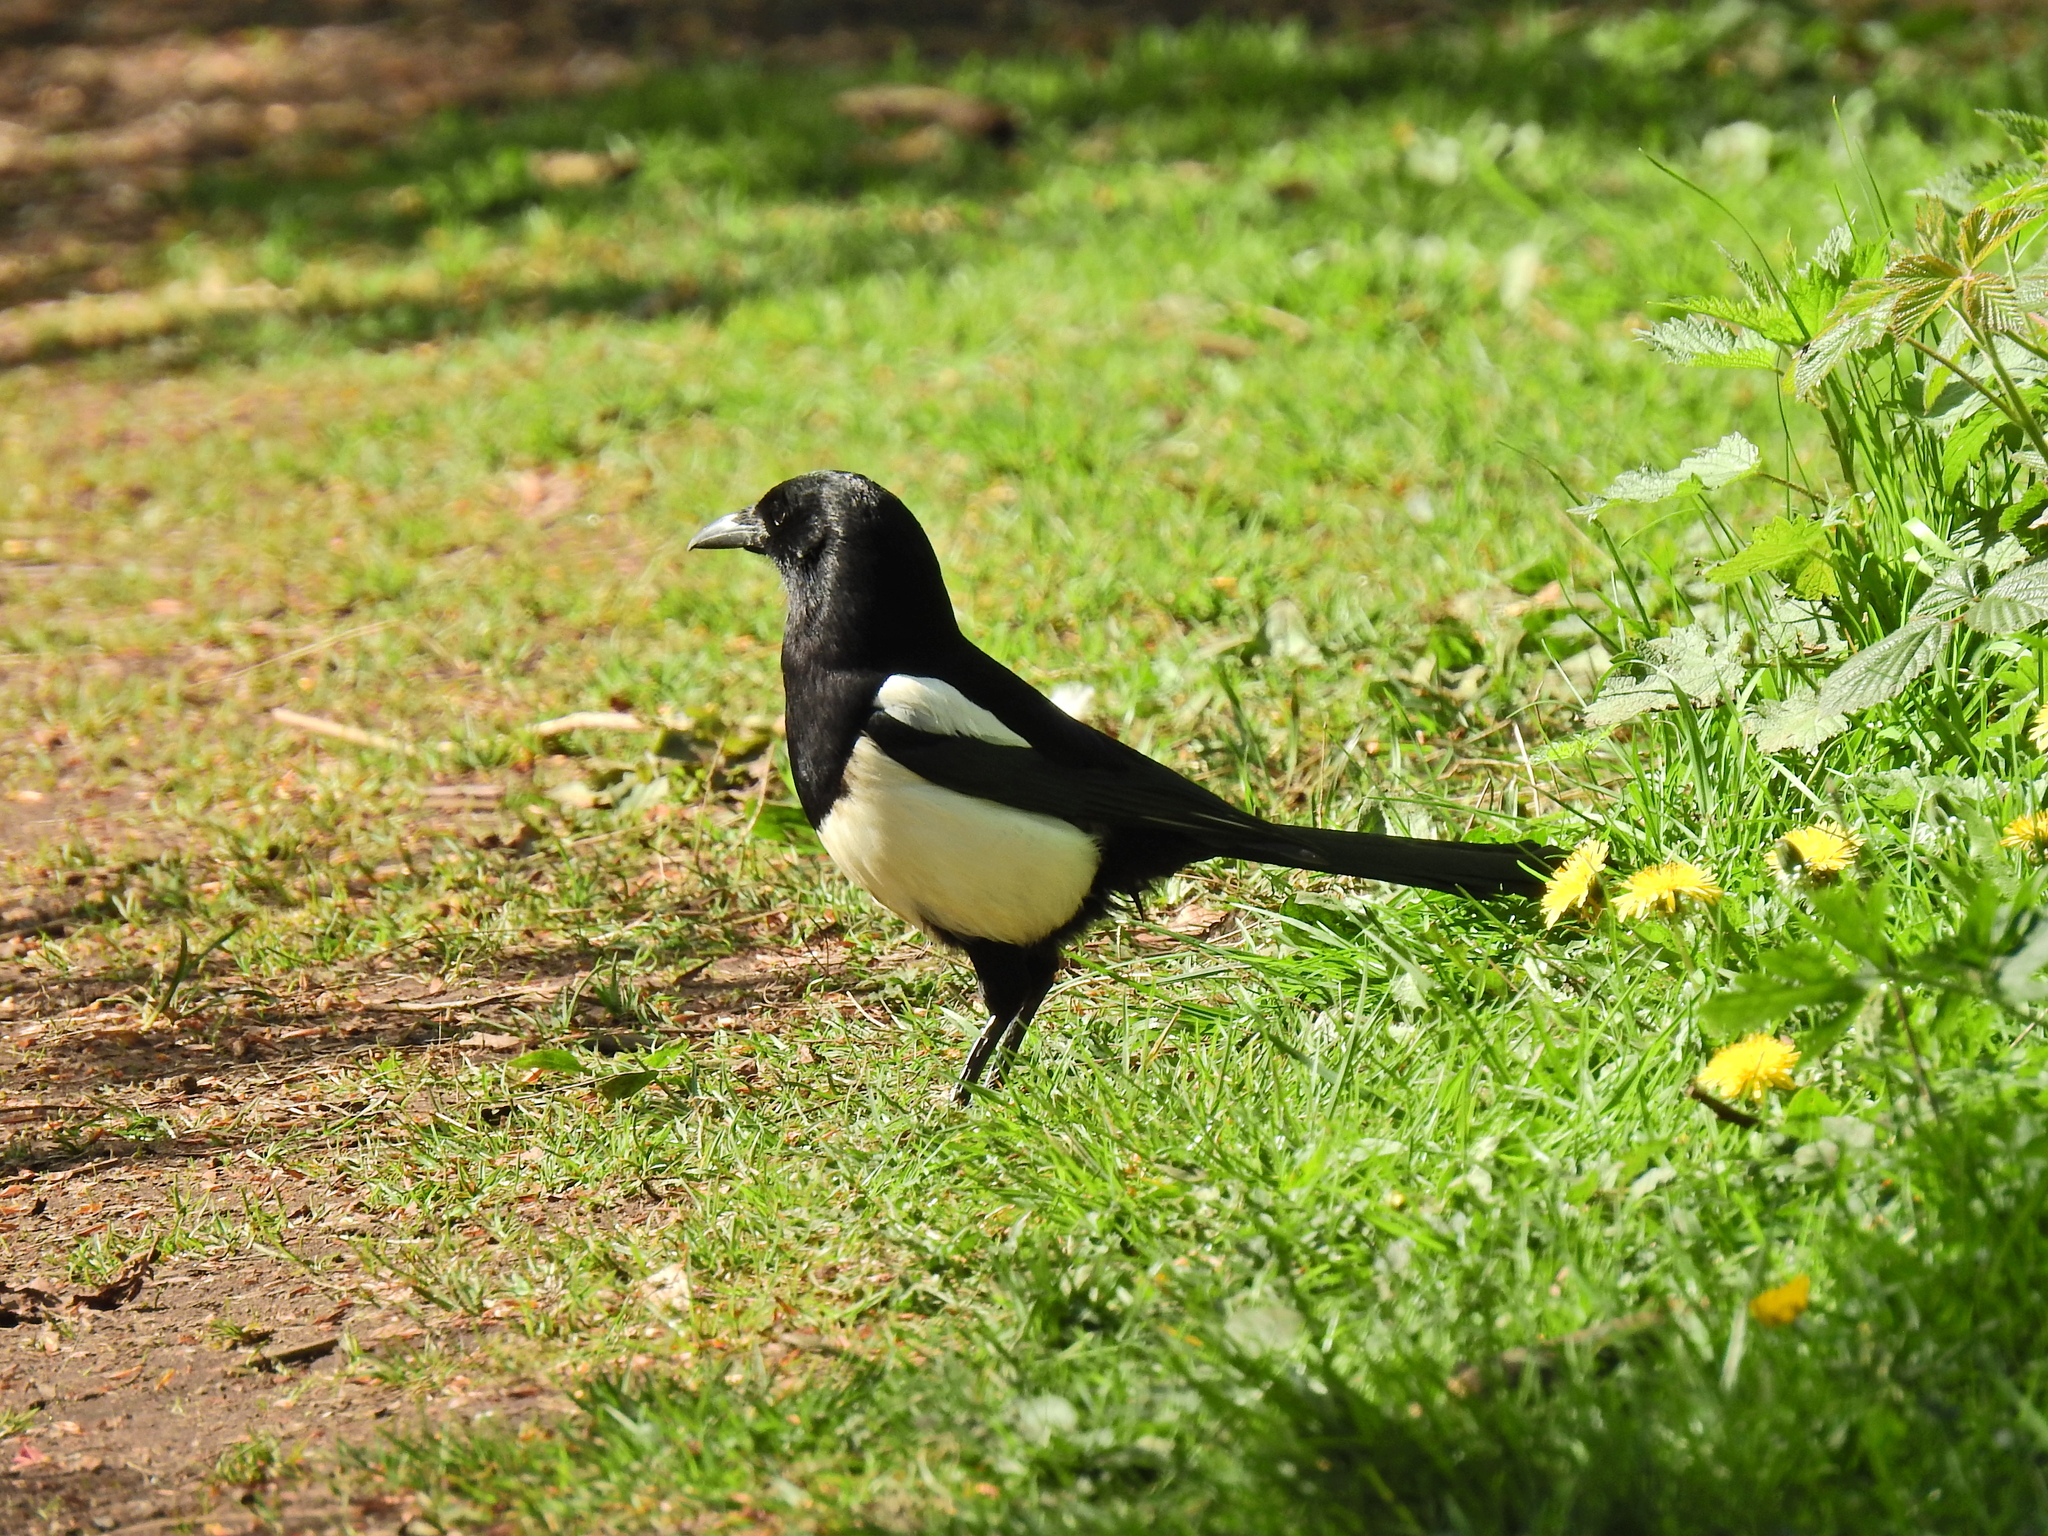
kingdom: Animalia
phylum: Chordata
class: Aves
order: Passeriformes
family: Corvidae
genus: Pica
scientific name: Pica pica
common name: Eurasian magpie
